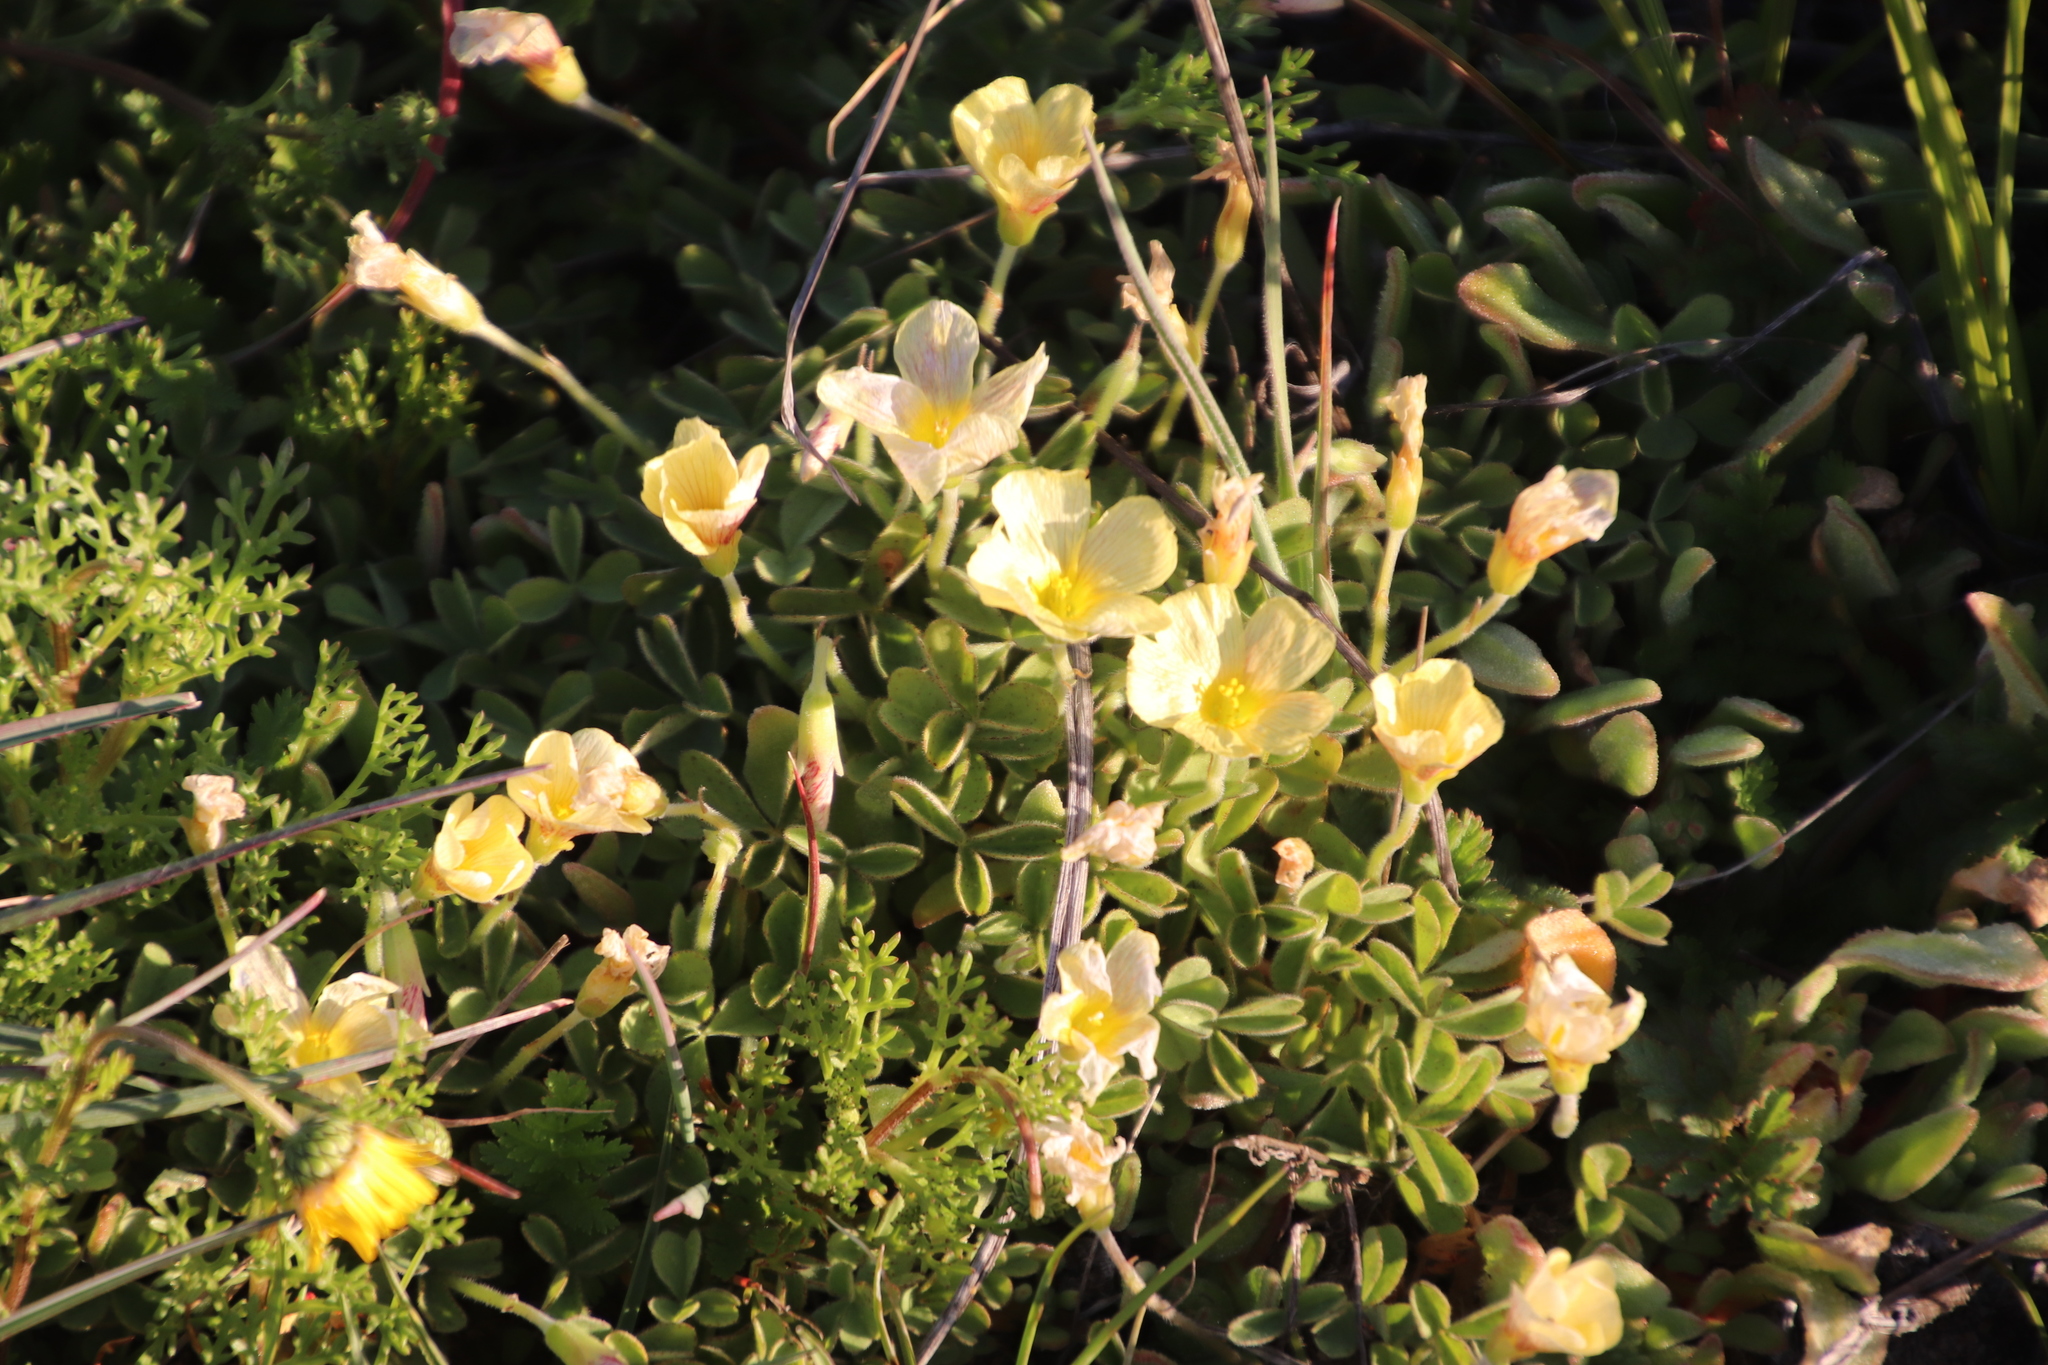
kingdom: Plantae
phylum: Tracheophyta
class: Magnoliopsida
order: Oxalidales
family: Oxalidaceae
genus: Oxalis
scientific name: Oxalis obtusa
